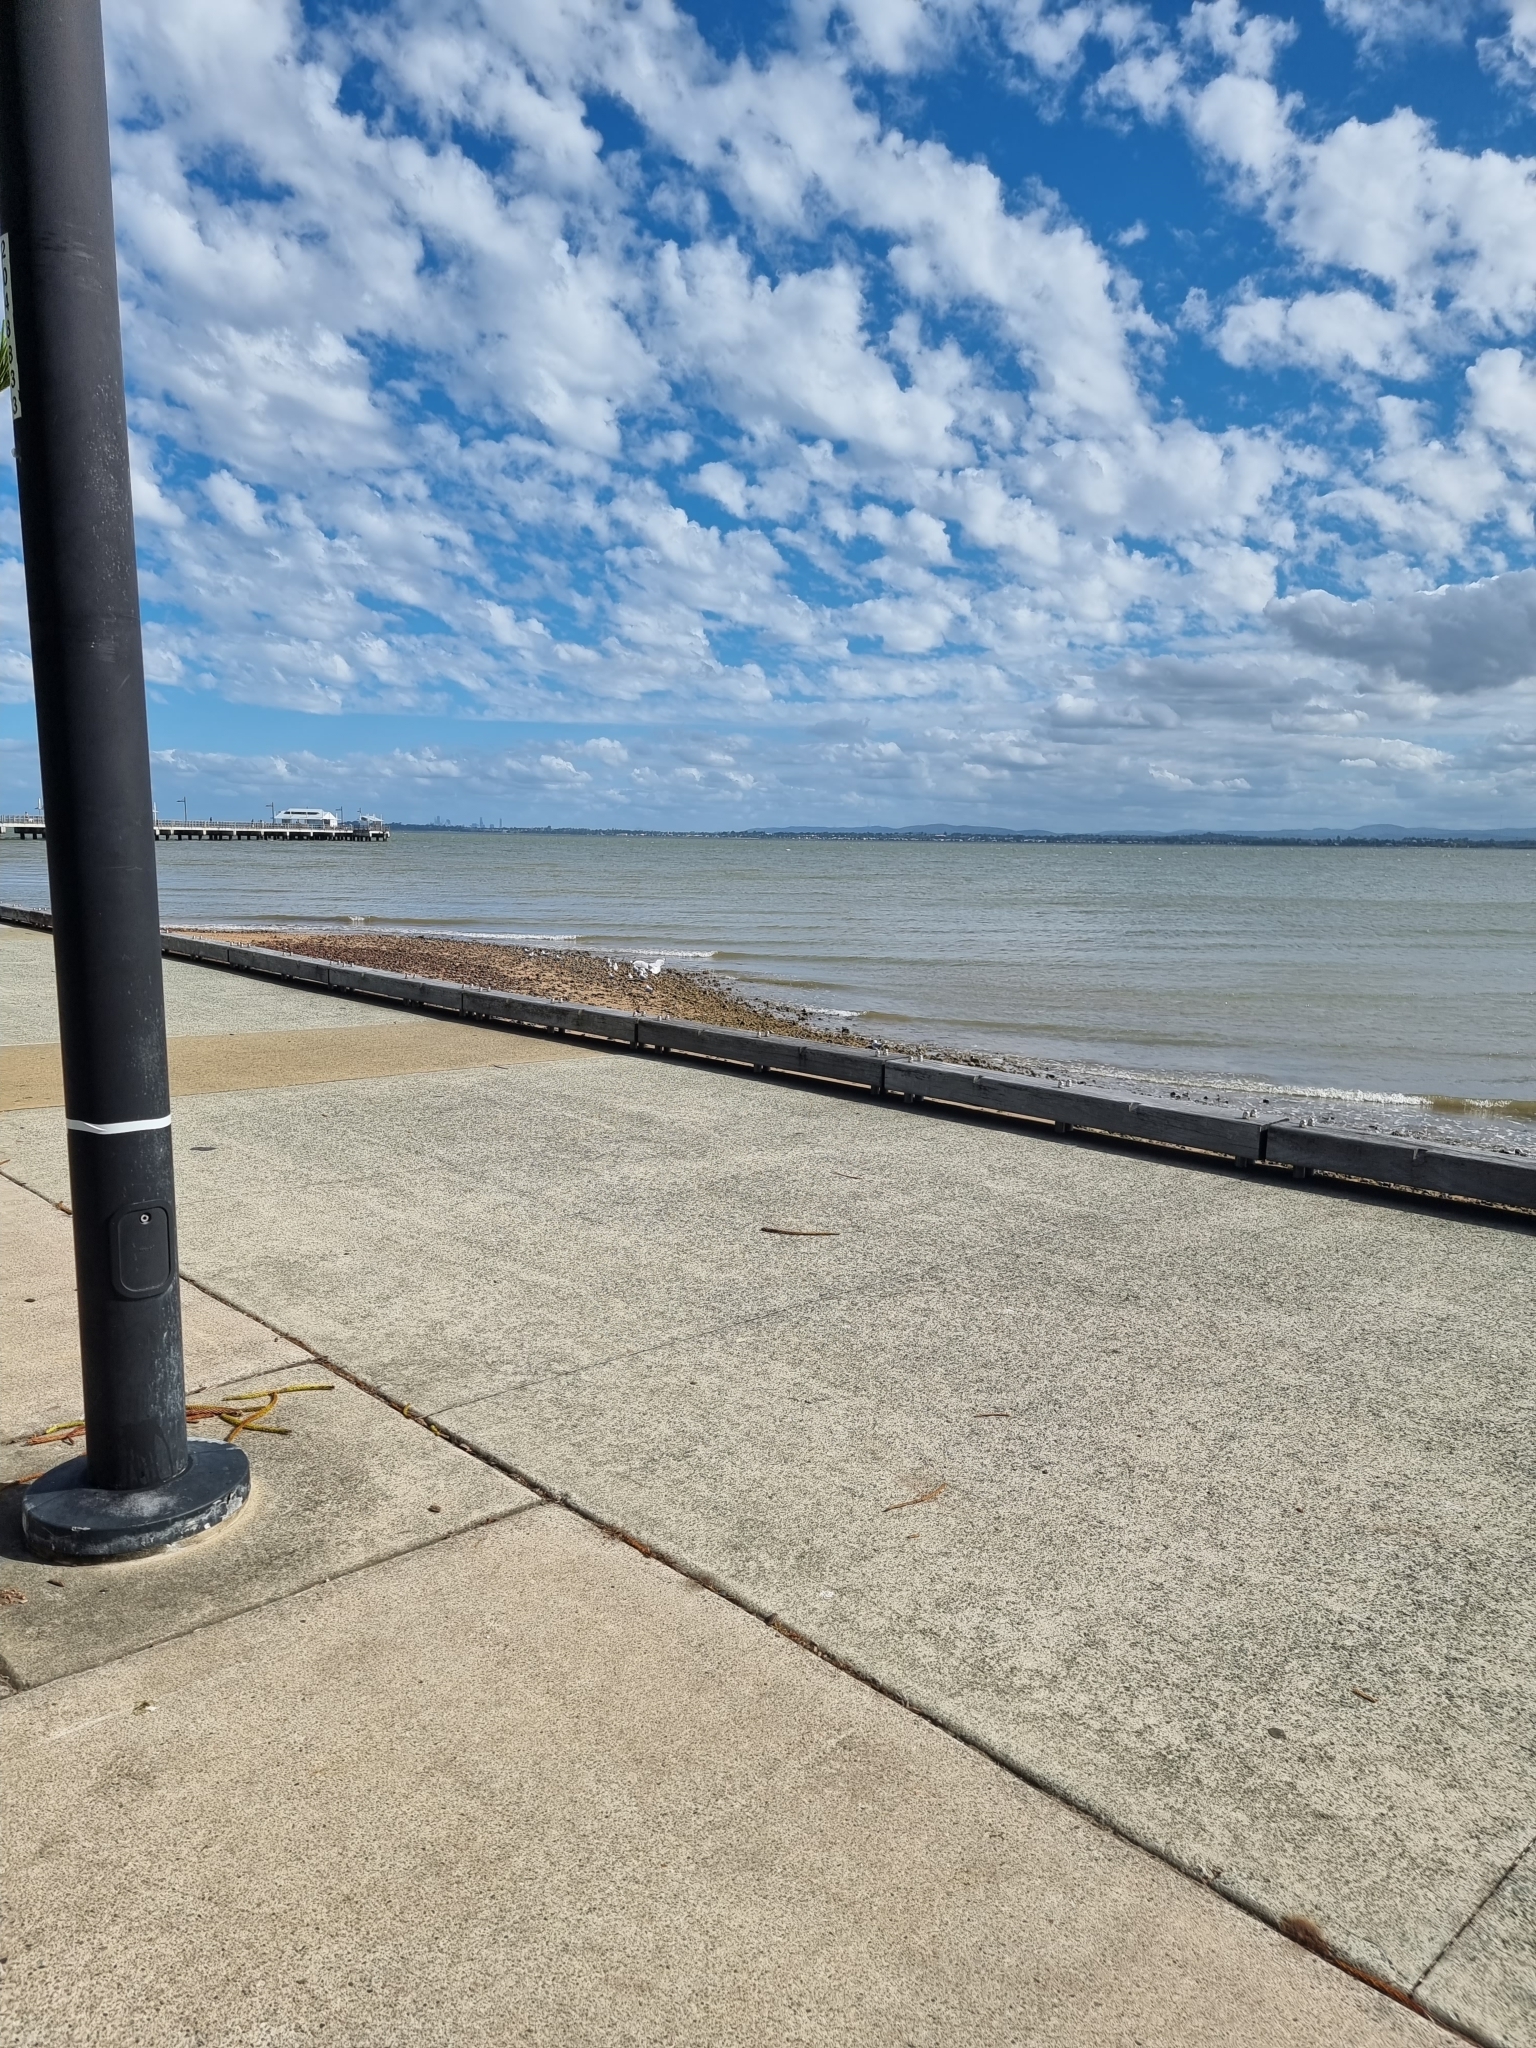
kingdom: Animalia
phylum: Chordata
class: Aves
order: Charadriiformes
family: Laridae
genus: Chroicocephalus
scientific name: Chroicocephalus novaehollandiae
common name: Silver gull
